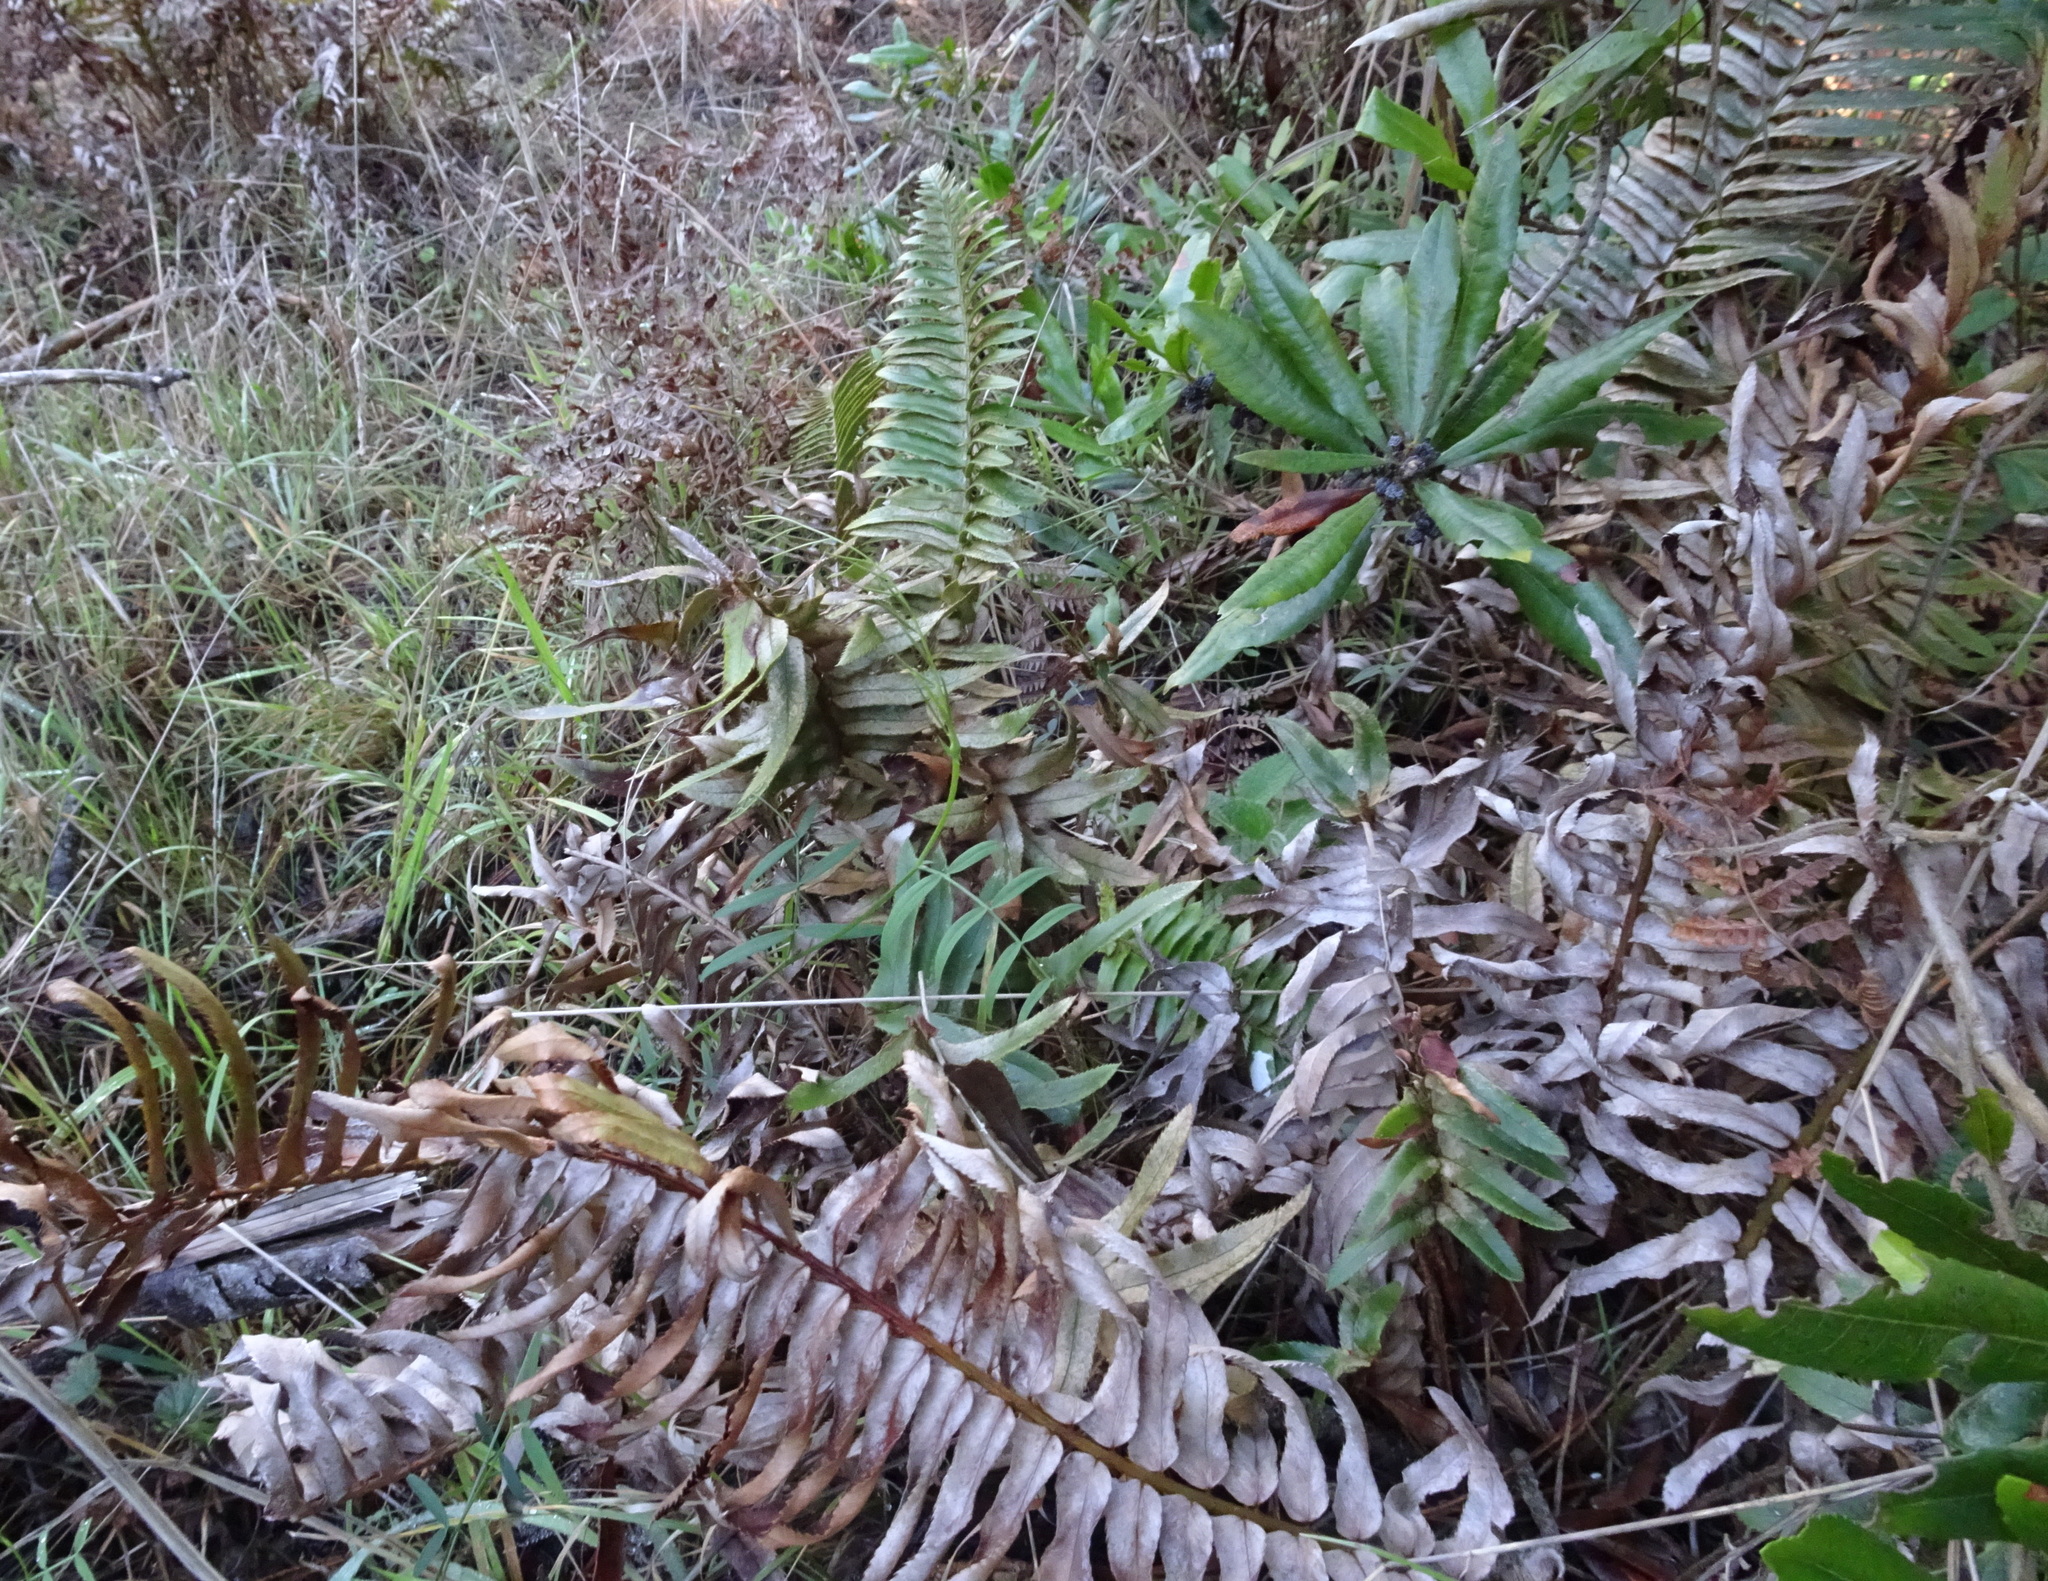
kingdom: Plantae
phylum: Tracheophyta
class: Polypodiopsida
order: Polypodiales
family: Dryopteridaceae
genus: Polystichum
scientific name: Polystichum munitum
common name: Western sword-fern
